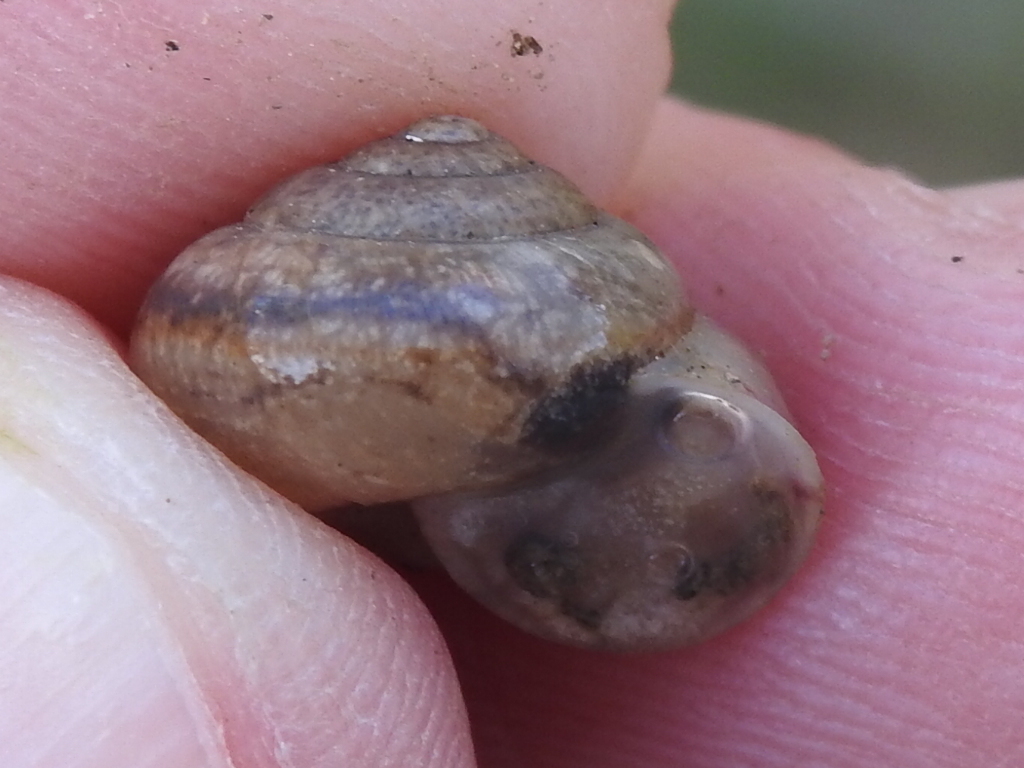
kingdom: Animalia
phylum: Mollusca
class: Gastropoda
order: Stylommatophora
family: Camaenidae
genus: Bradybaena
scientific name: Bradybaena similaris
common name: Asian trampsnail
